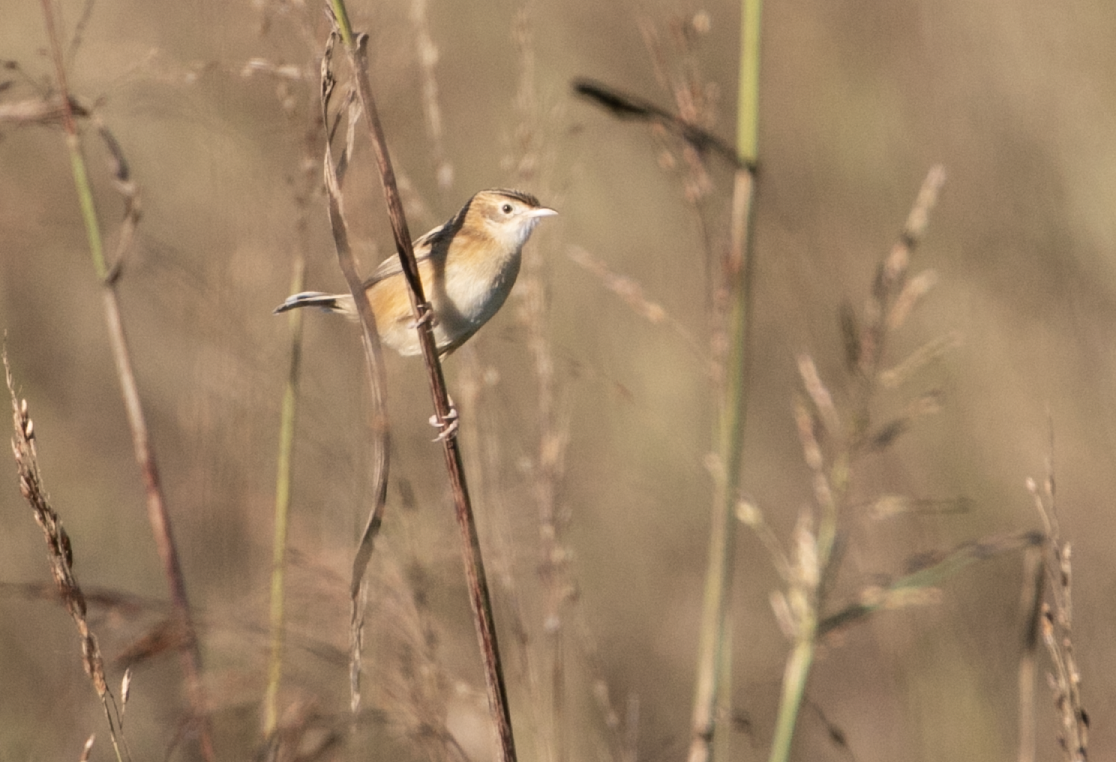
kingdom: Animalia
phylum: Chordata
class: Aves
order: Passeriformes
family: Cisticolidae
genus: Cisticola
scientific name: Cisticola juncidis
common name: Zitting cisticola
